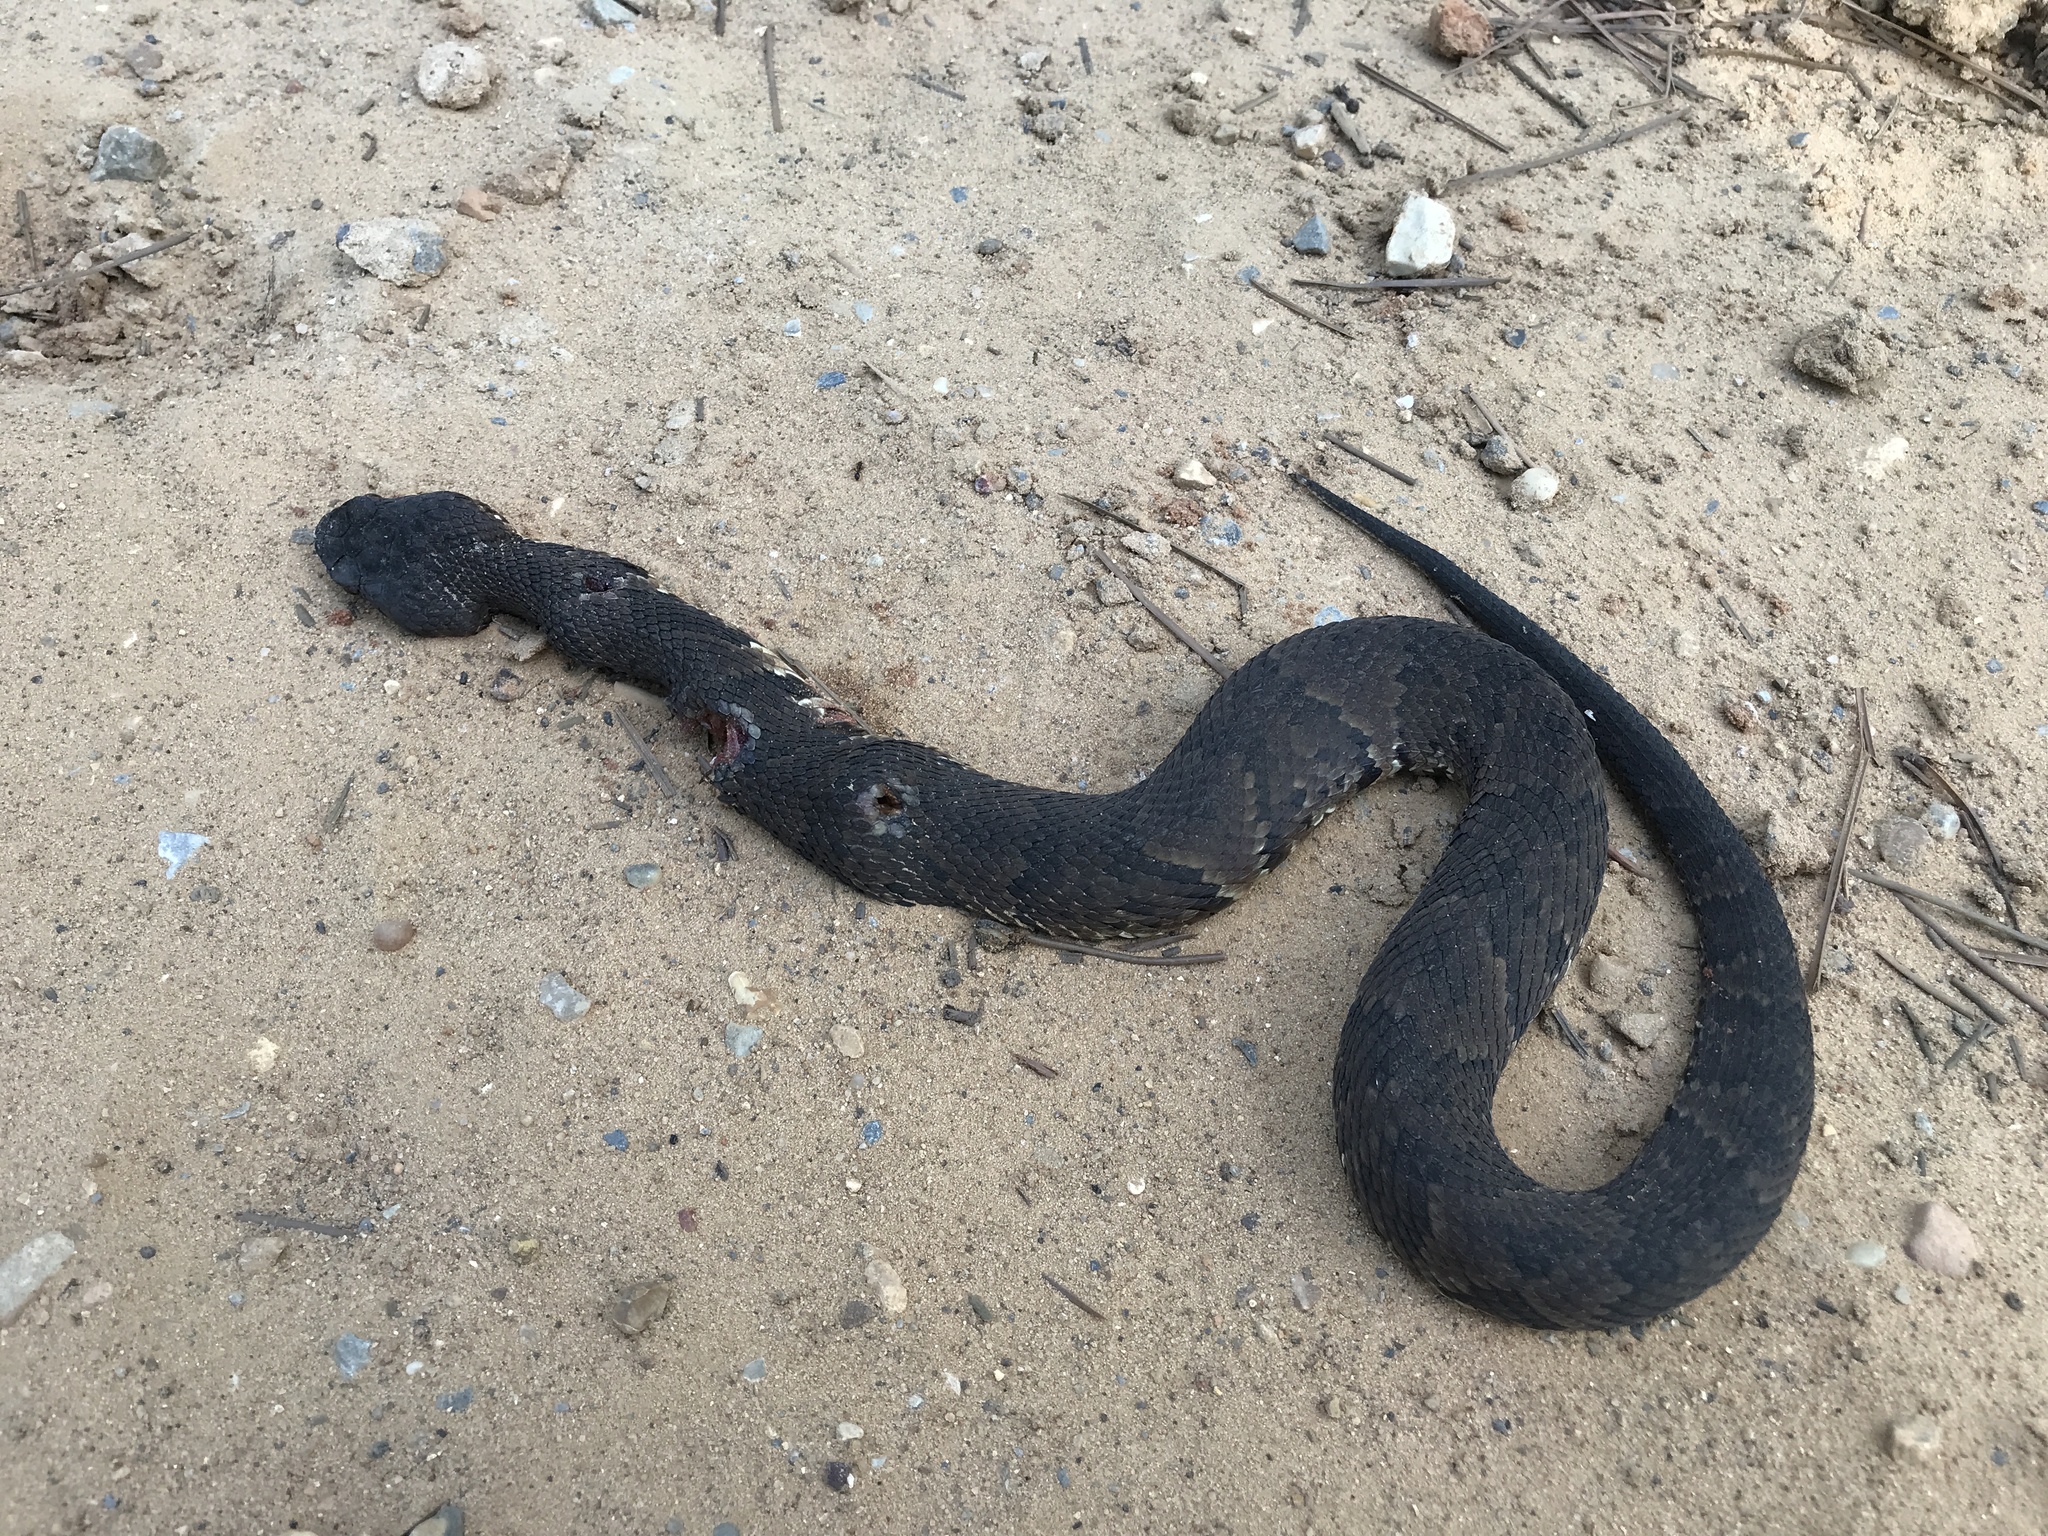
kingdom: Animalia
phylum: Chordata
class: Squamata
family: Viperidae
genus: Agkistrodon
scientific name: Agkistrodon piscivorus
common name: Cottonmouth
